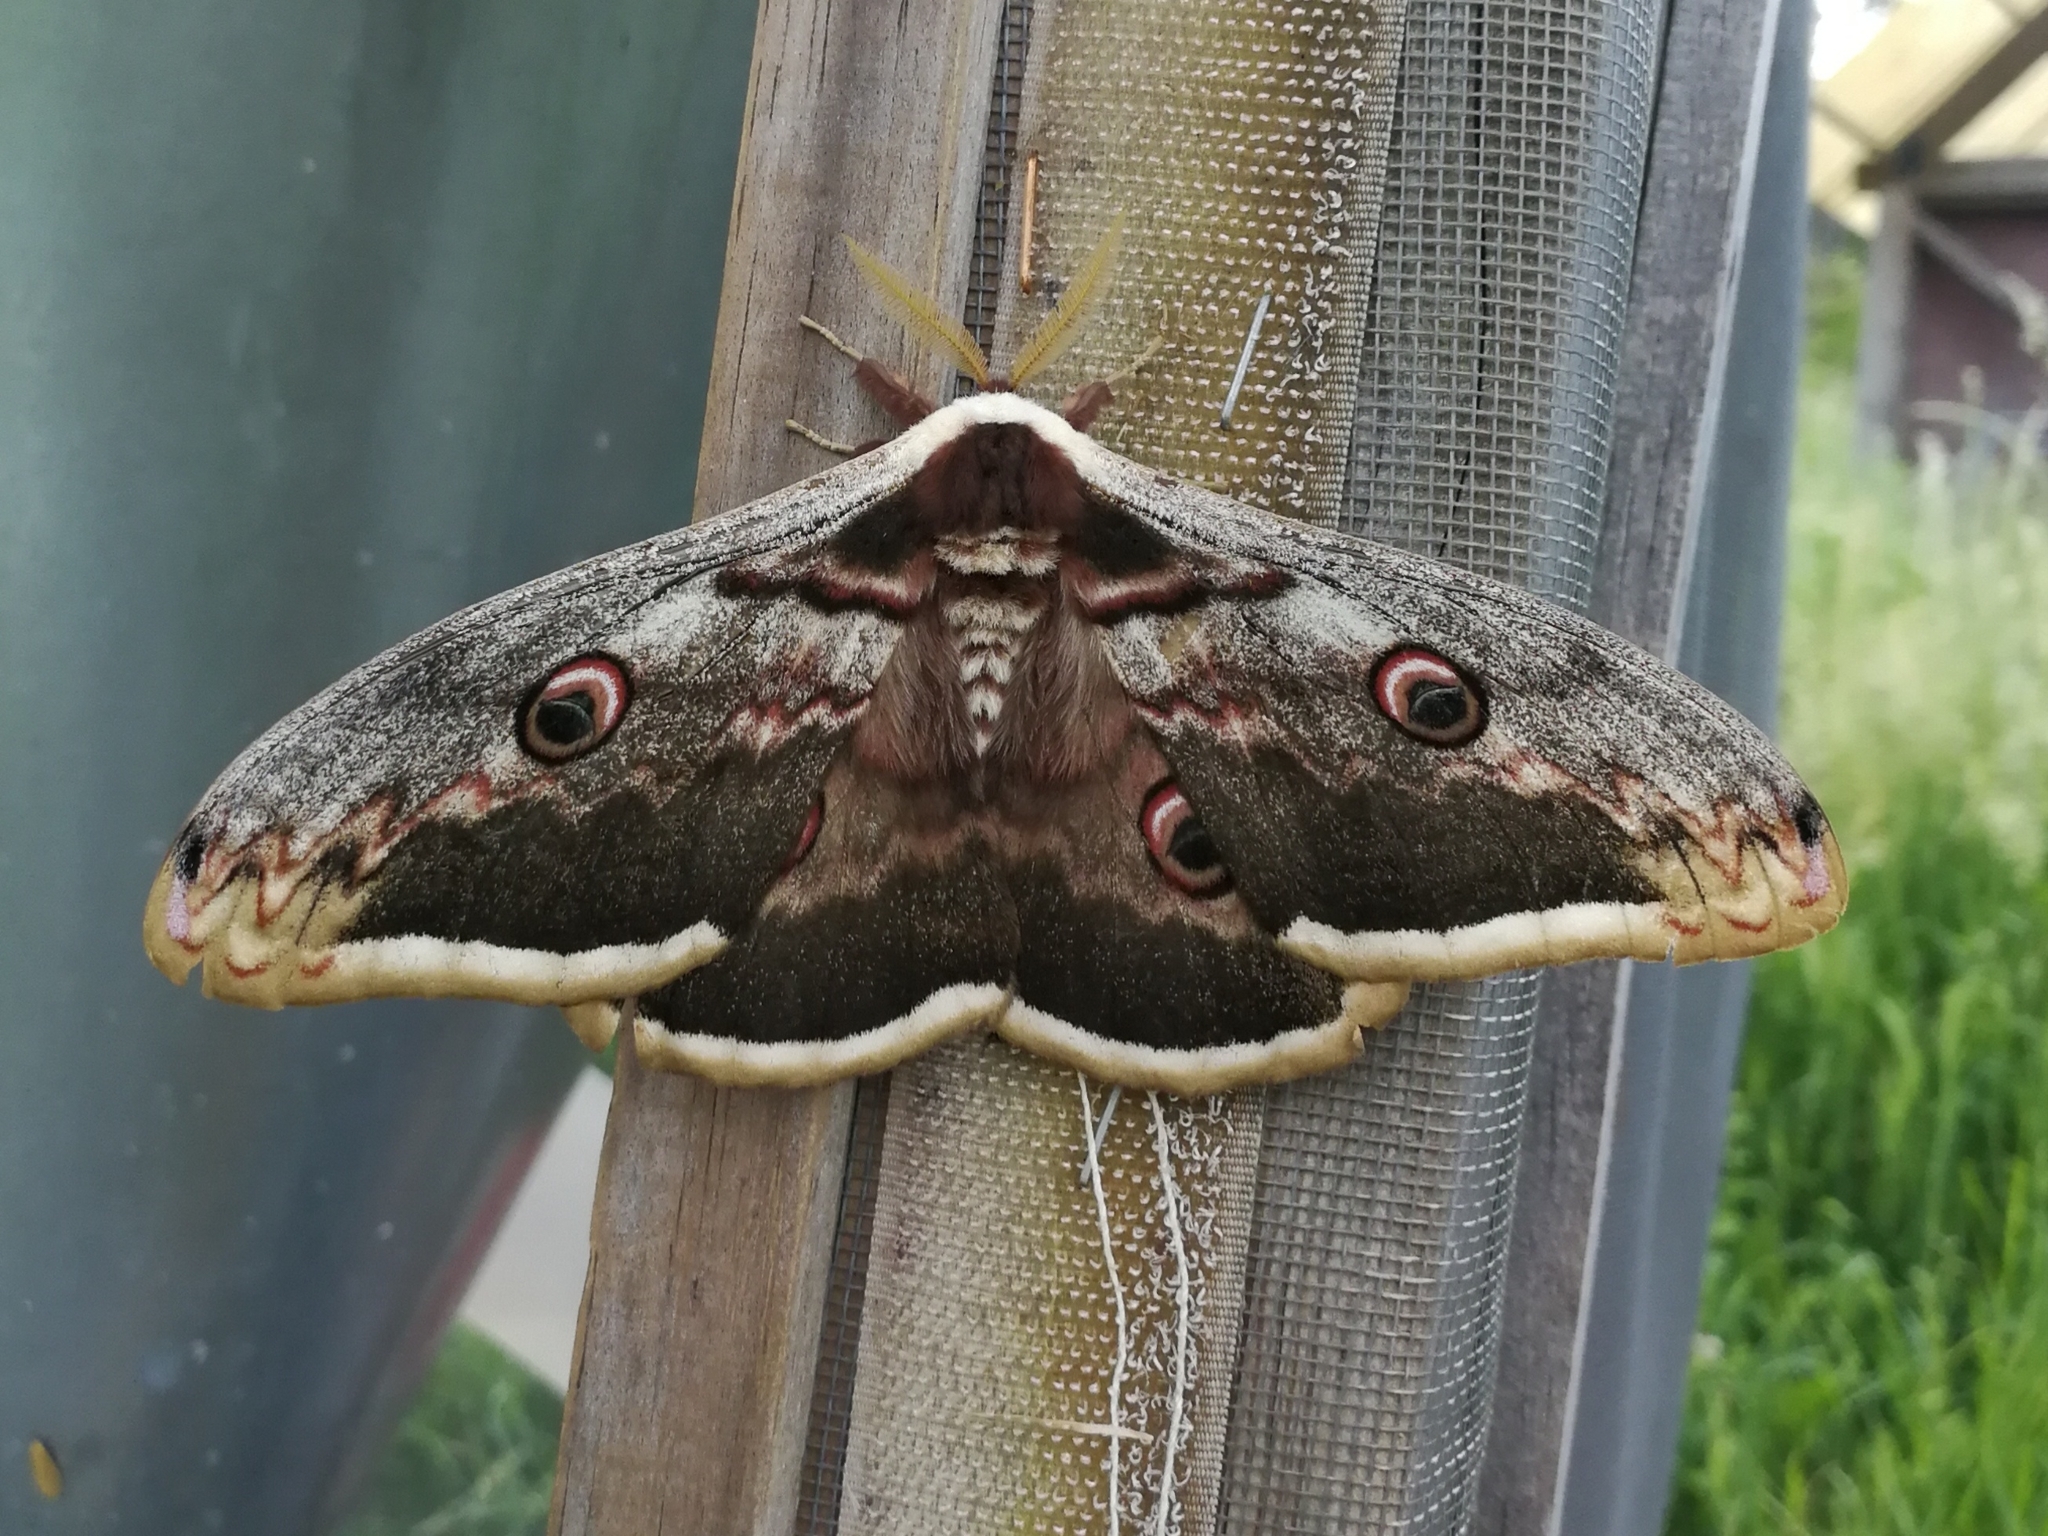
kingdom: Animalia
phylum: Arthropoda
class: Insecta
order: Lepidoptera
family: Saturniidae
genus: Saturnia
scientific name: Saturnia pyri
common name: Great peacock moth
